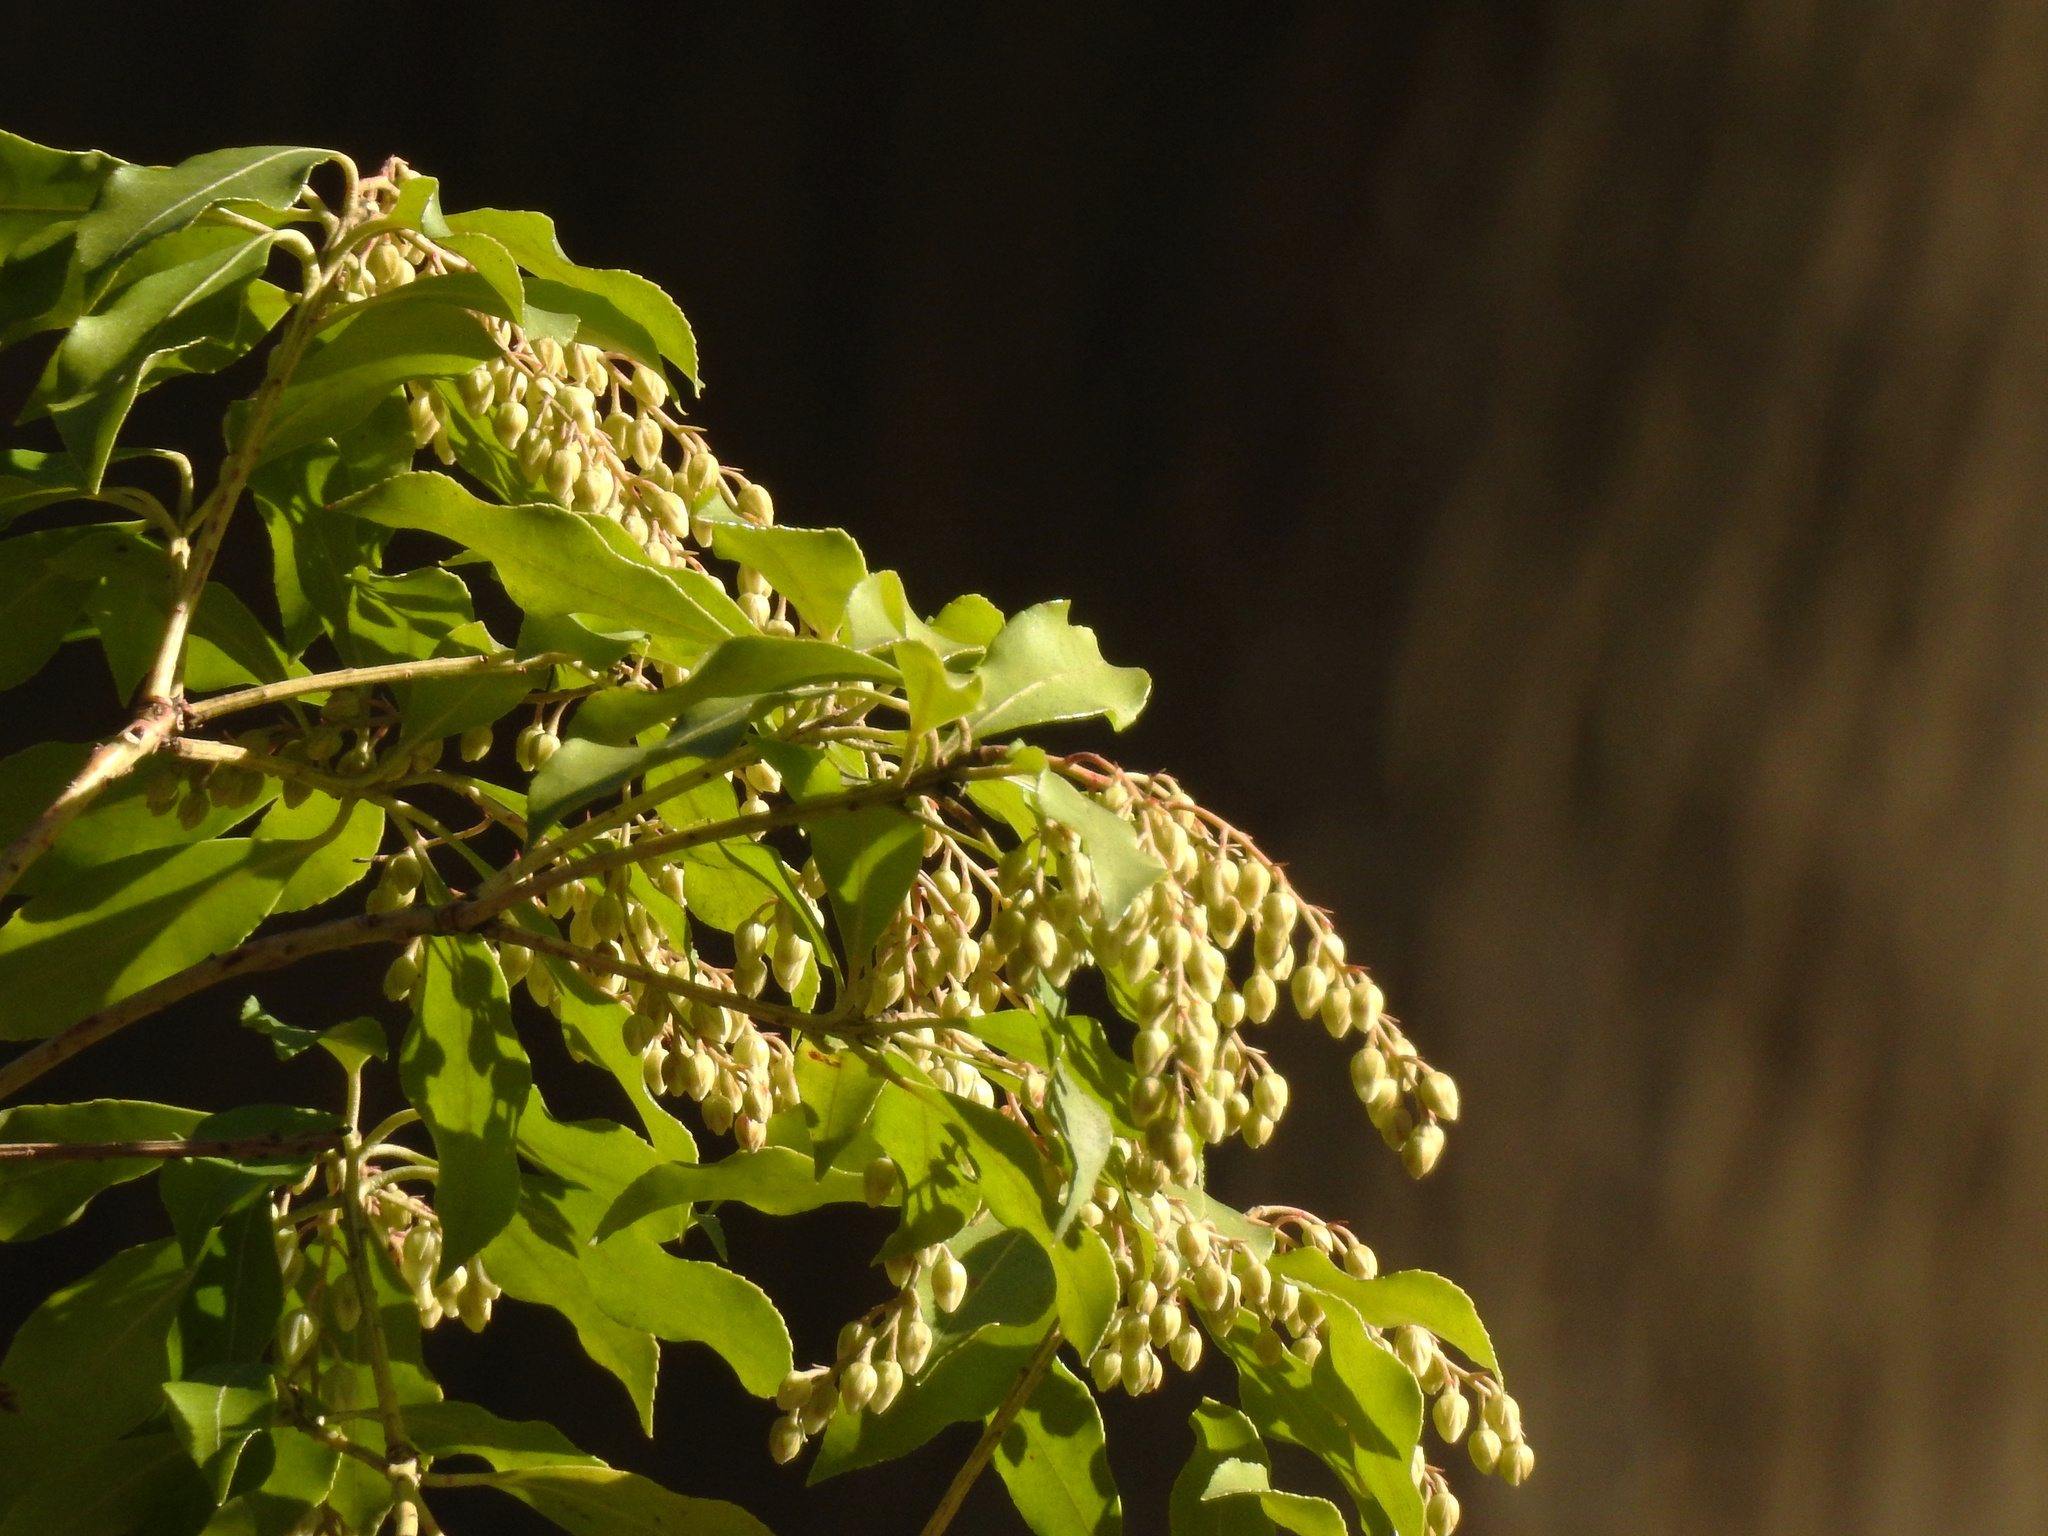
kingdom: Plantae
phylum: Tracheophyta
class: Magnoliopsida
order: Ericales
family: Ericaceae
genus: Pieris
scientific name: Pieris japonica
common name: Japanese pieris
